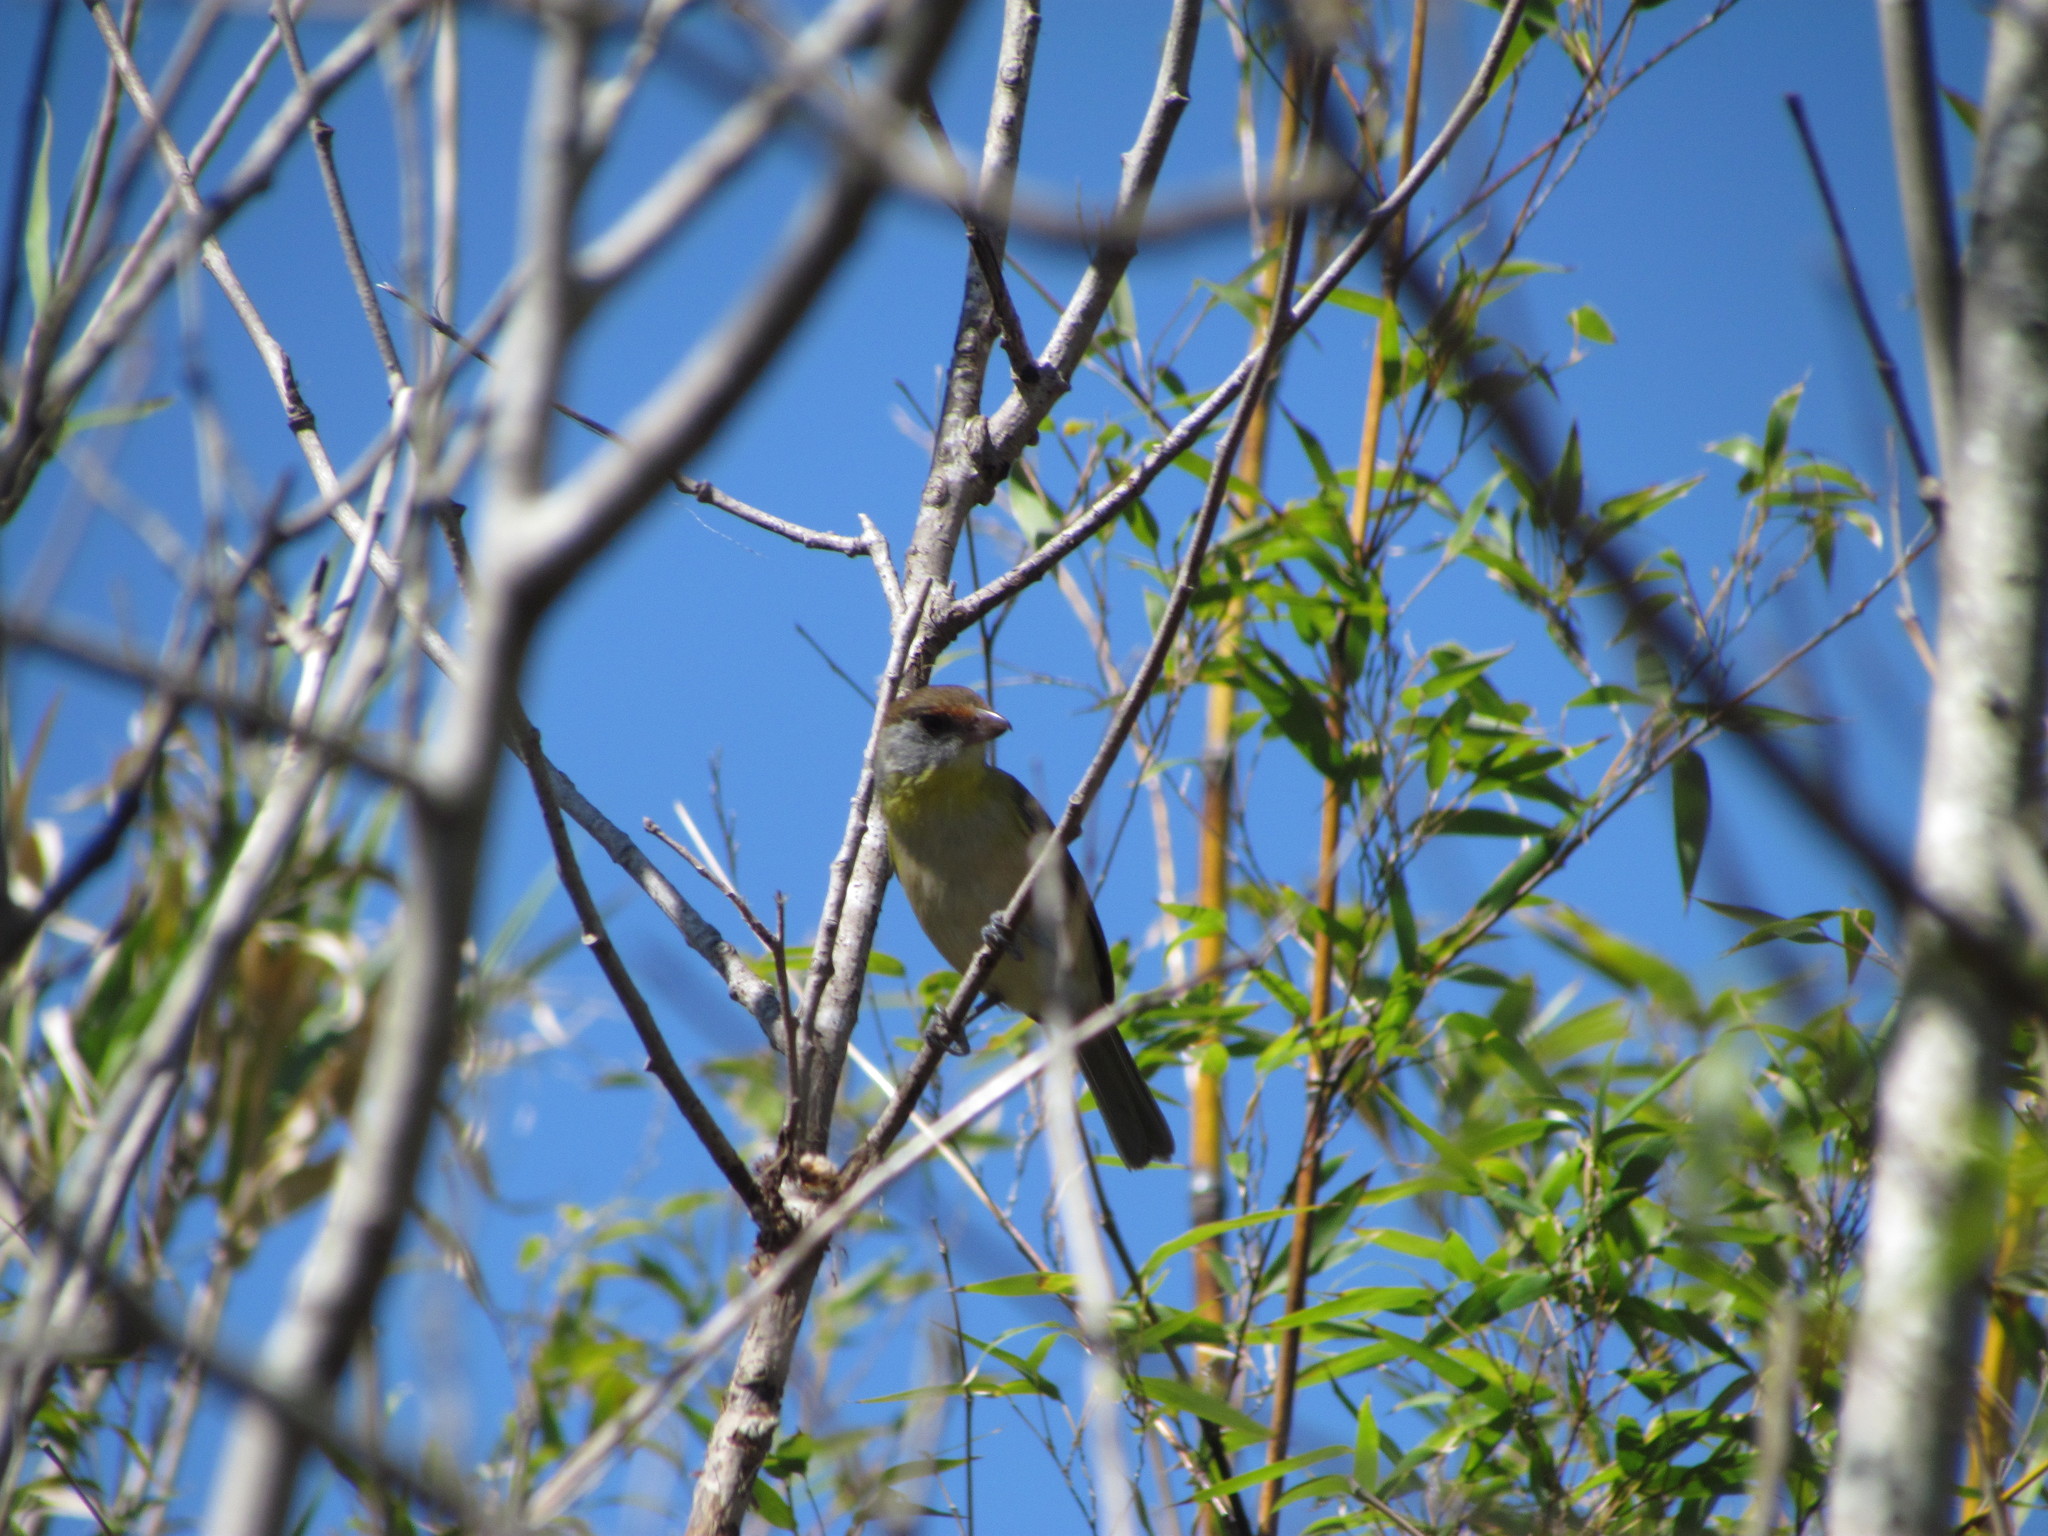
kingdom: Animalia
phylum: Chordata
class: Aves
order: Passeriformes
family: Vireonidae
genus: Cyclarhis
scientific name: Cyclarhis gujanensis
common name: Rufous-browed peppershrike
